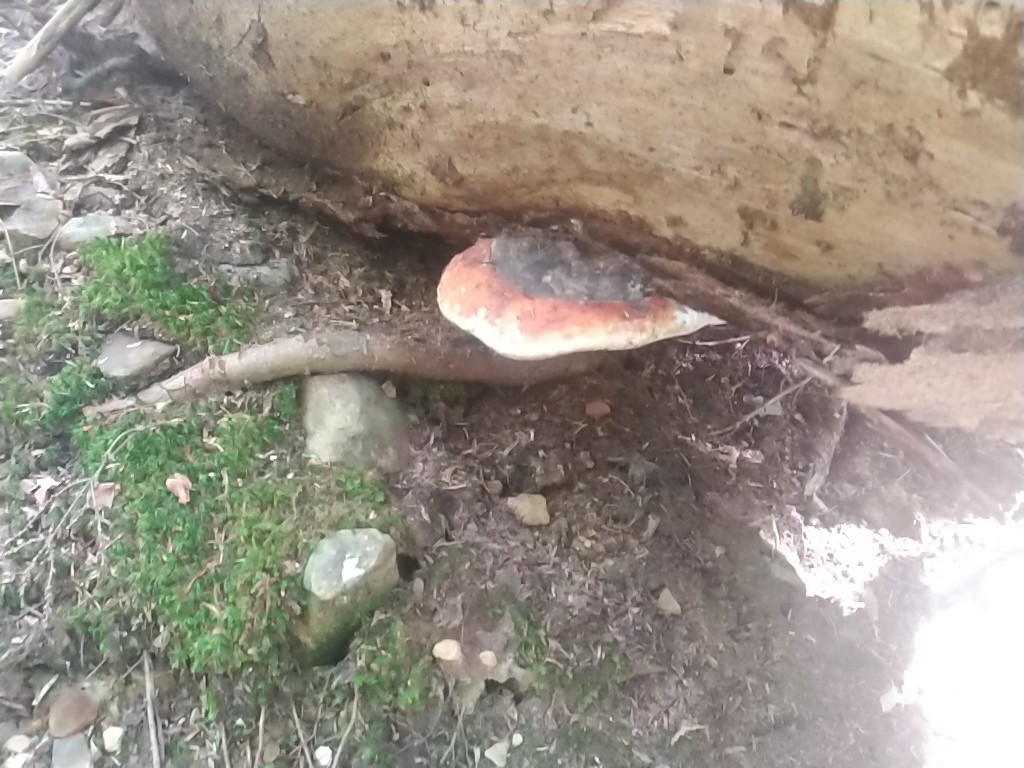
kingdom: Fungi
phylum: Basidiomycota
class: Agaricomycetes
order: Polyporales
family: Fomitopsidaceae
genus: Fomitopsis
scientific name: Fomitopsis mounceae
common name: Northern red belt
